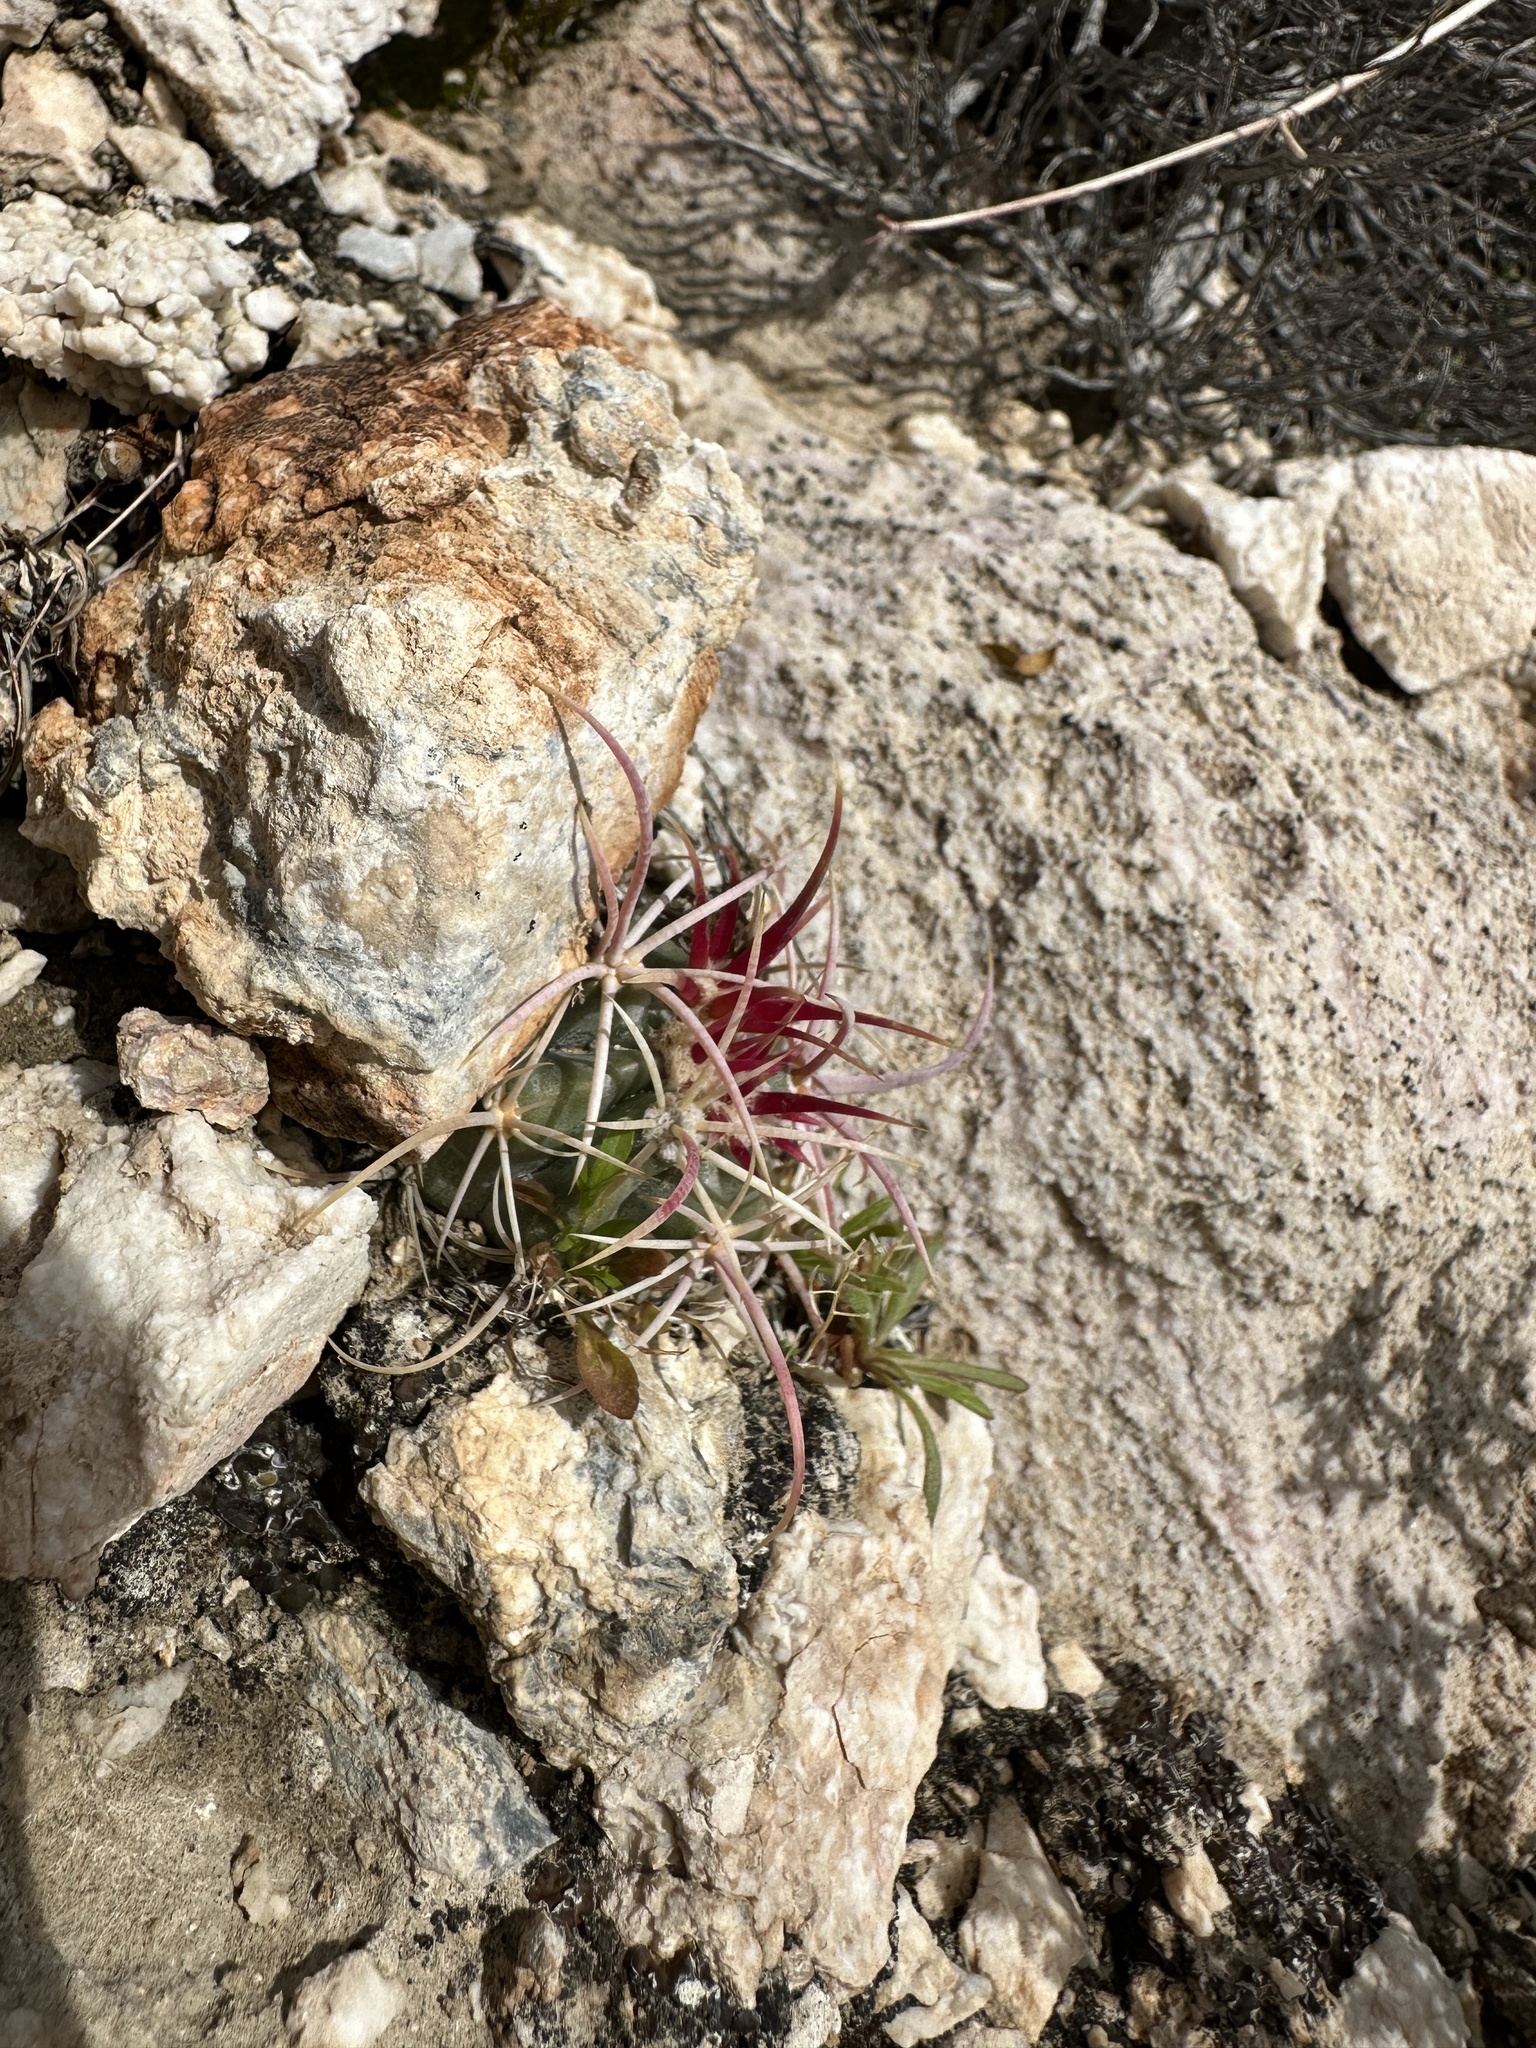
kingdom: Plantae
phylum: Tracheophyta
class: Magnoliopsida
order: Caryophyllales
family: Cactaceae
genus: Echinocactus
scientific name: Echinocactus polycephalus
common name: Cottontop cactus
